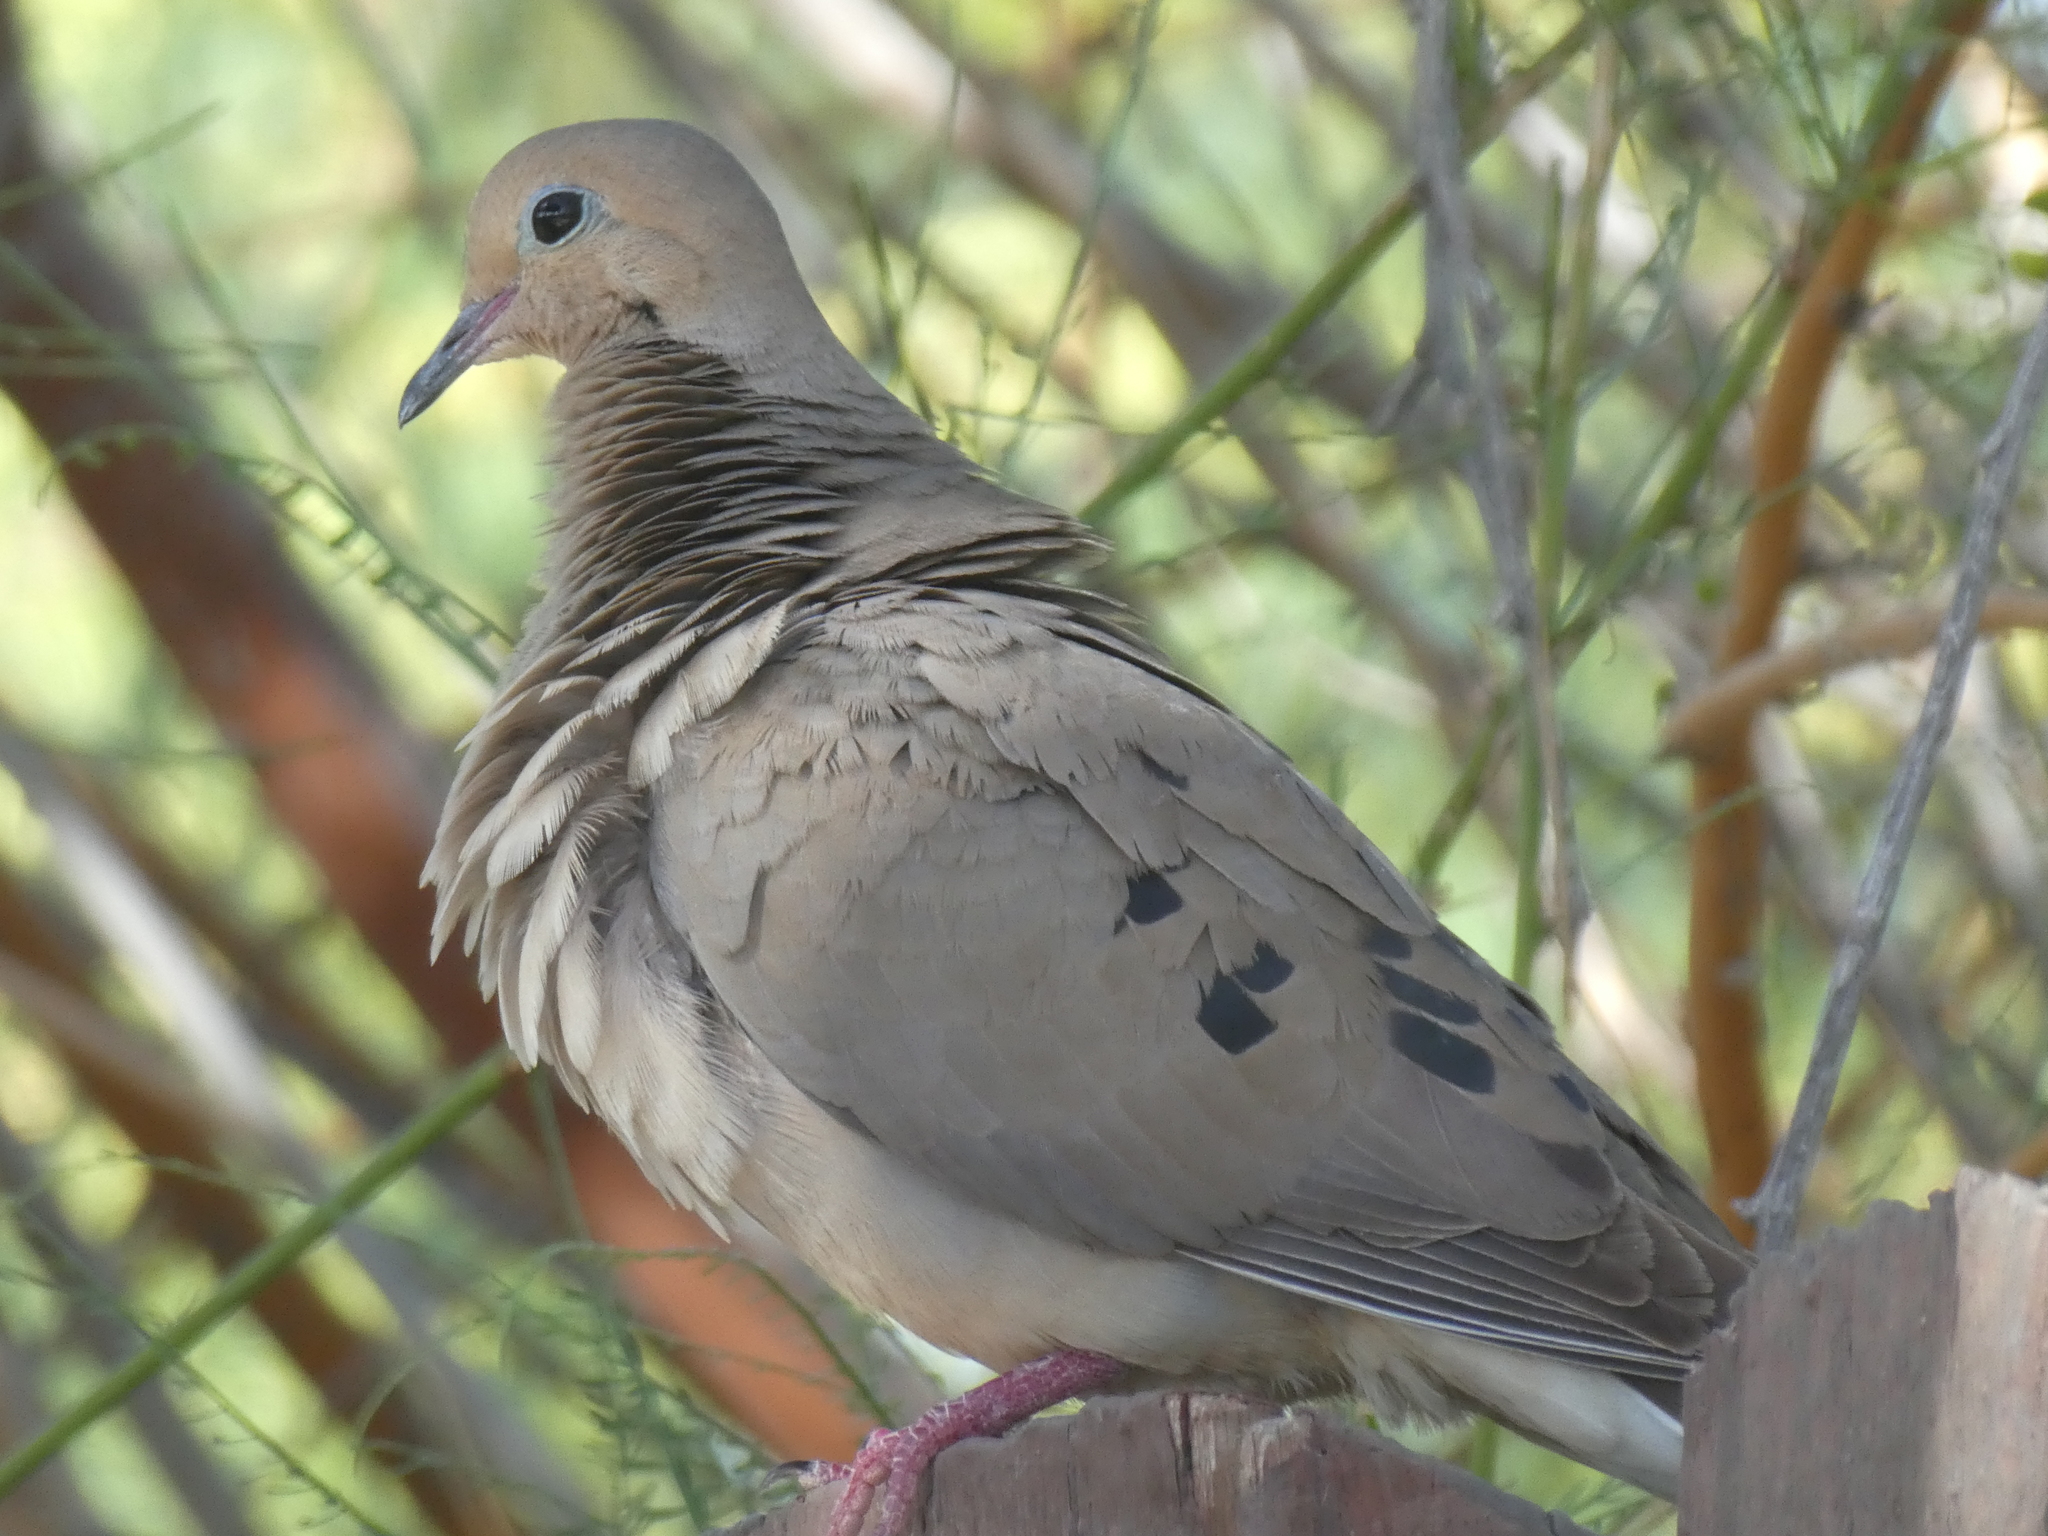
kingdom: Animalia
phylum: Chordata
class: Aves
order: Columbiformes
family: Columbidae
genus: Zenaida
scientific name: Zenaida macroura
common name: Mourning dove
